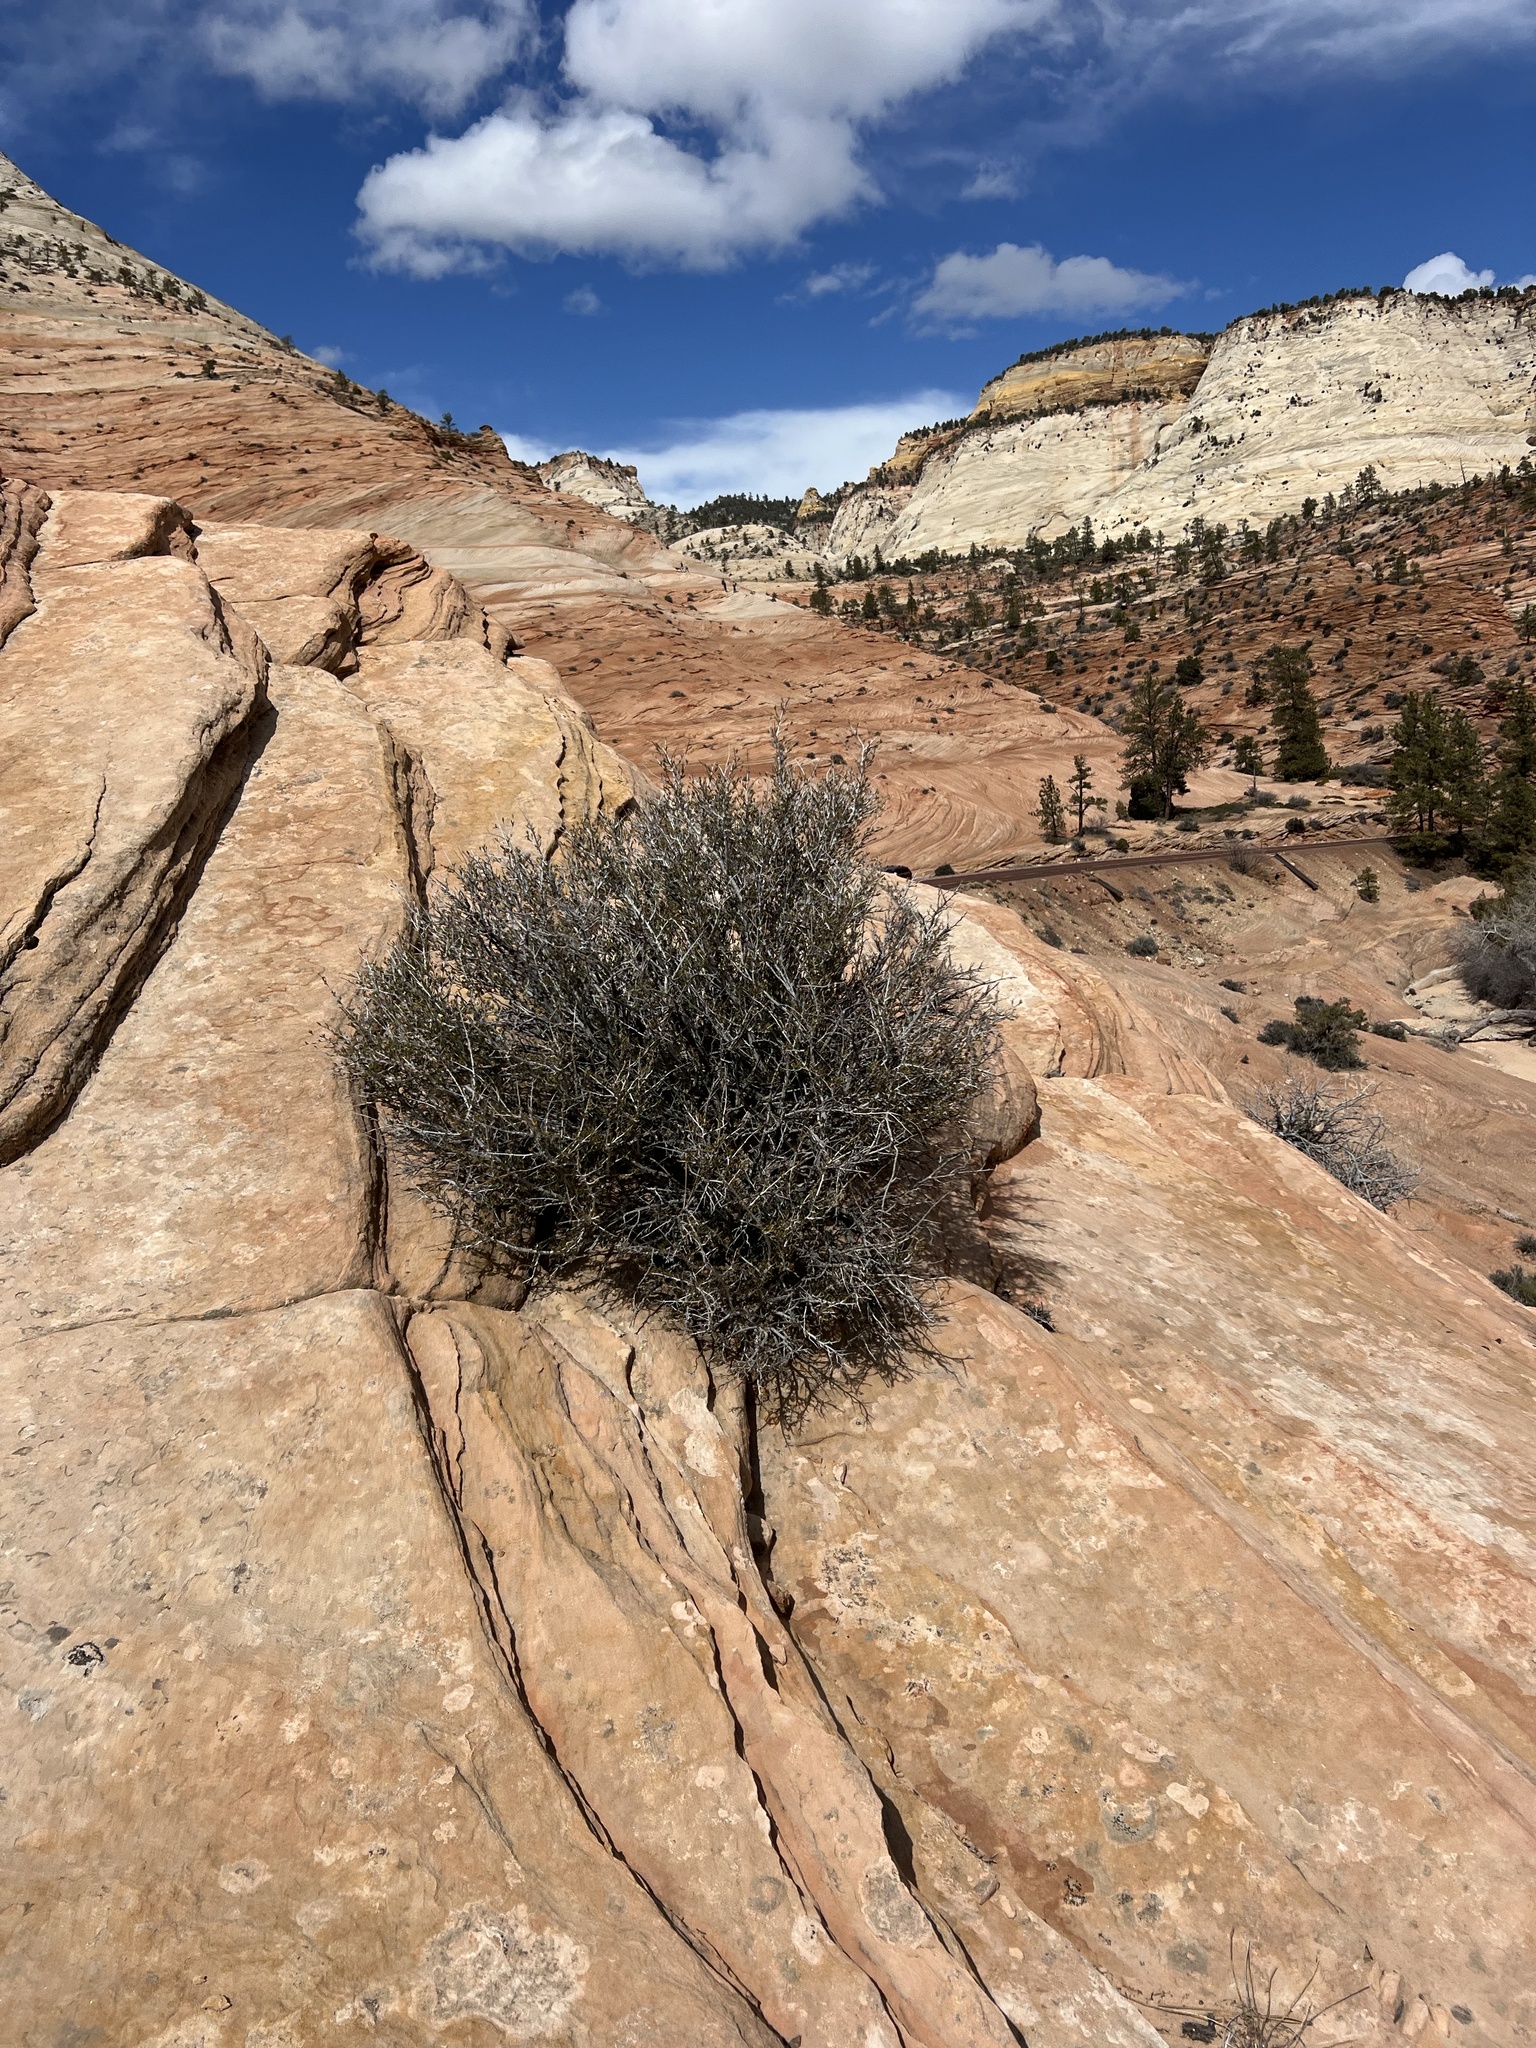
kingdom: Plantae
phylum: Tracheophyta
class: Magnoliopsida
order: Rosales
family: Rosaceae
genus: Cercocarpus
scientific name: Cercocarpus intricatus
